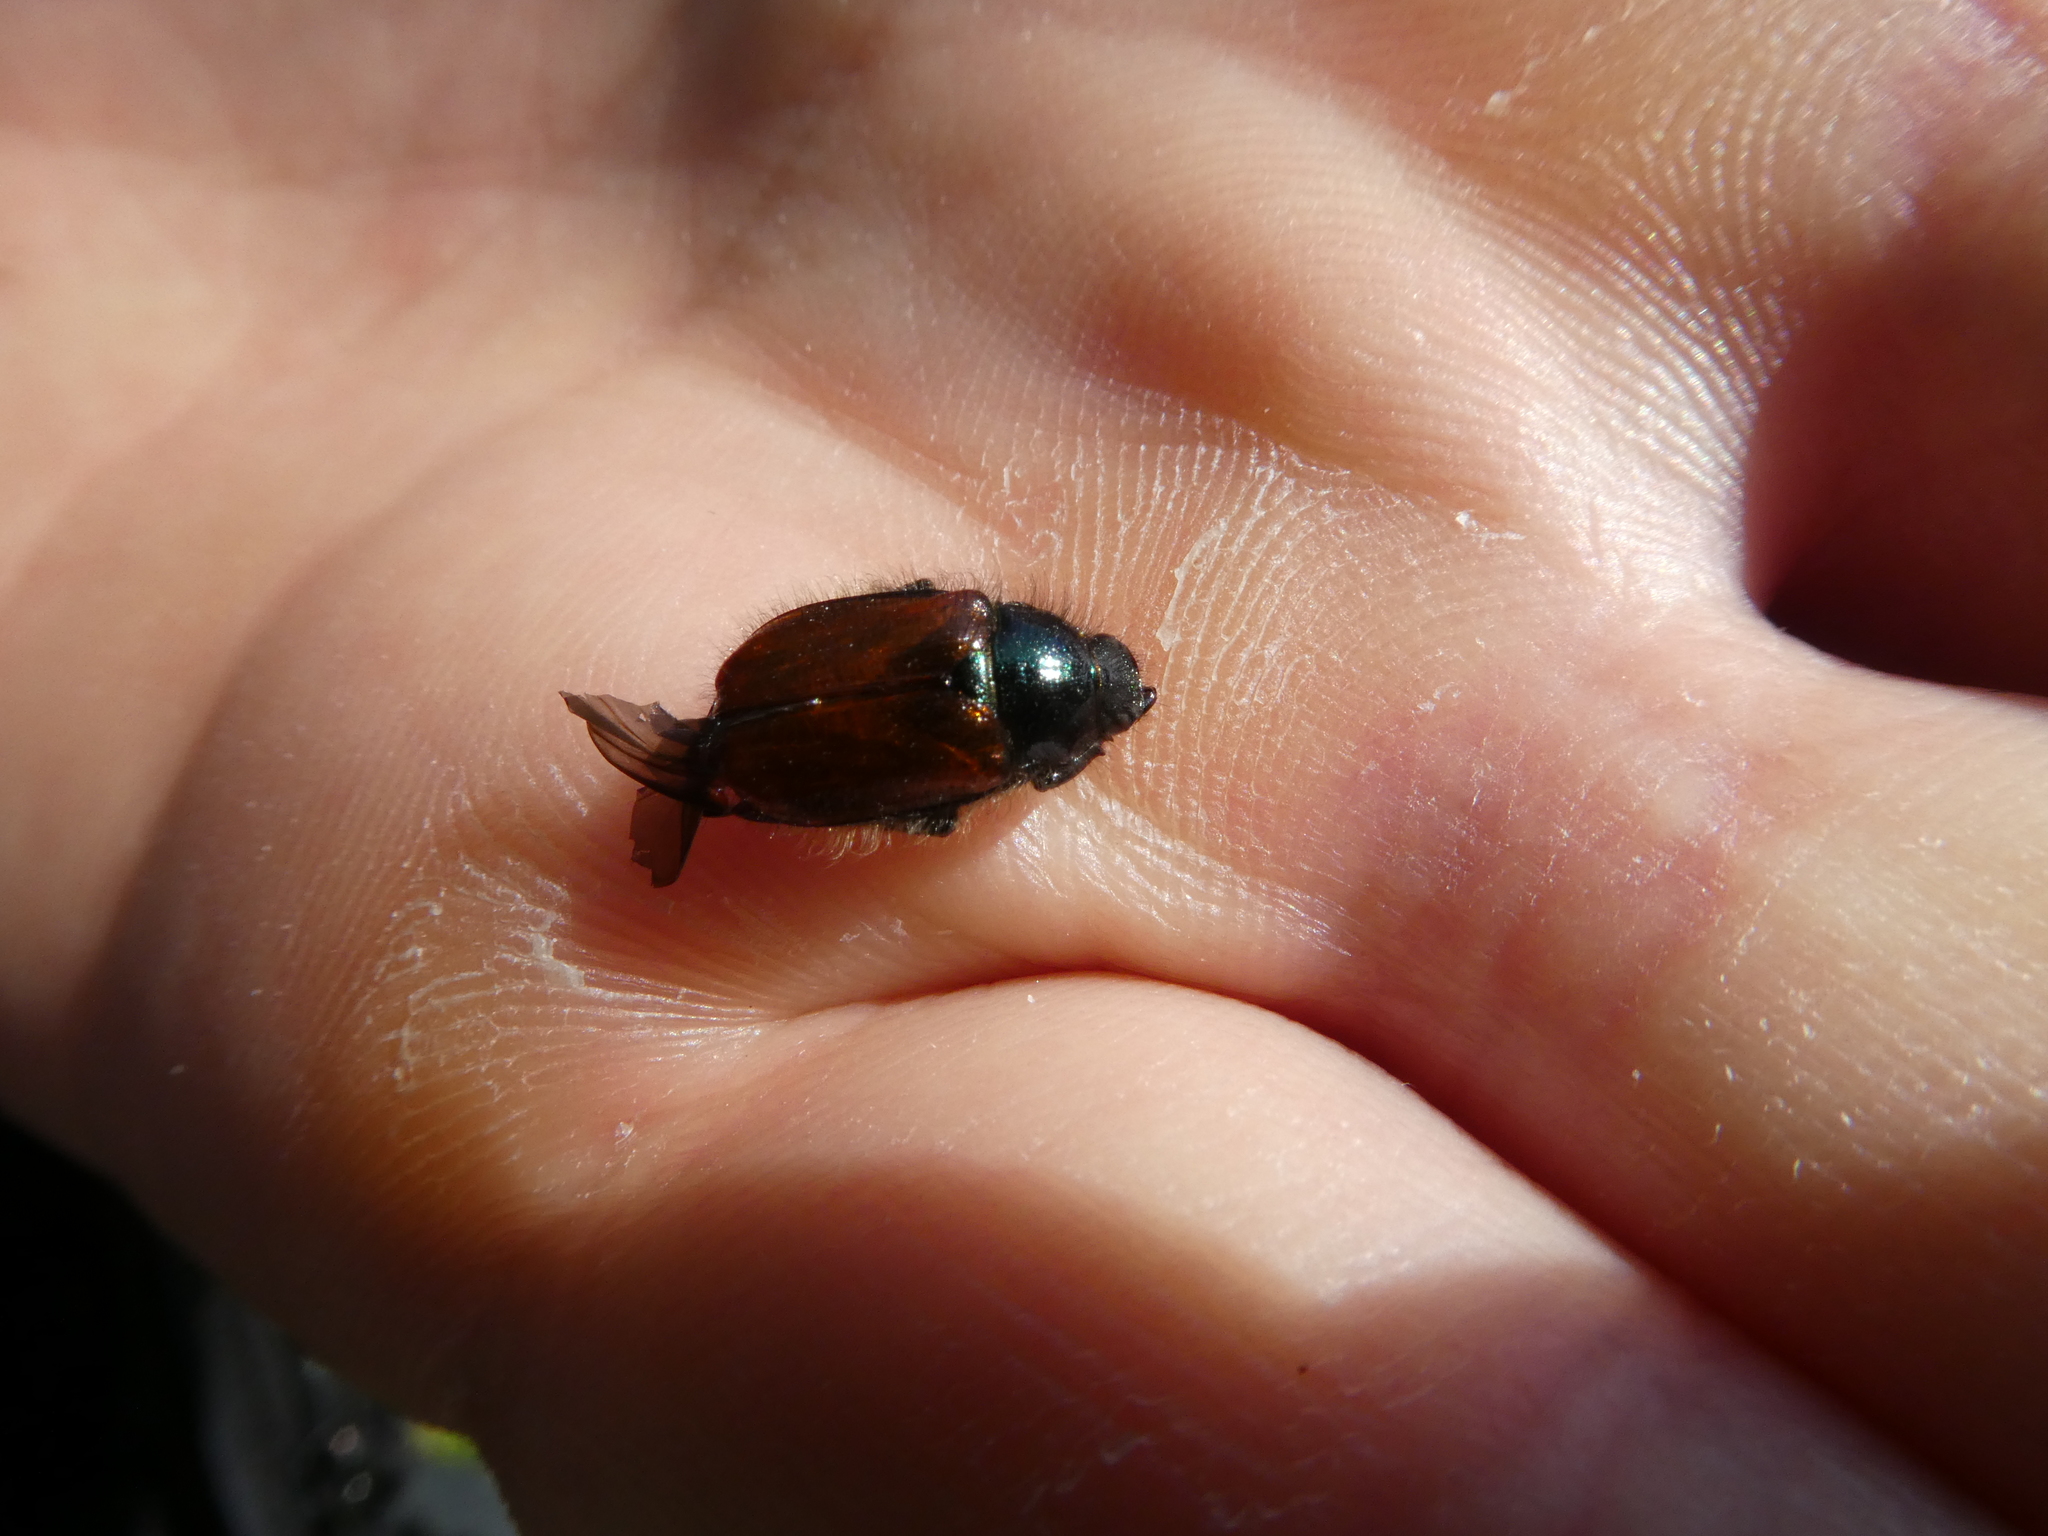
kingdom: Animalia
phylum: Arthropoda
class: Insecta
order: Coleoptera
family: Scarabaeidae
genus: Phyllopertha
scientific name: Phyllopertha horticola
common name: Garden chafer
